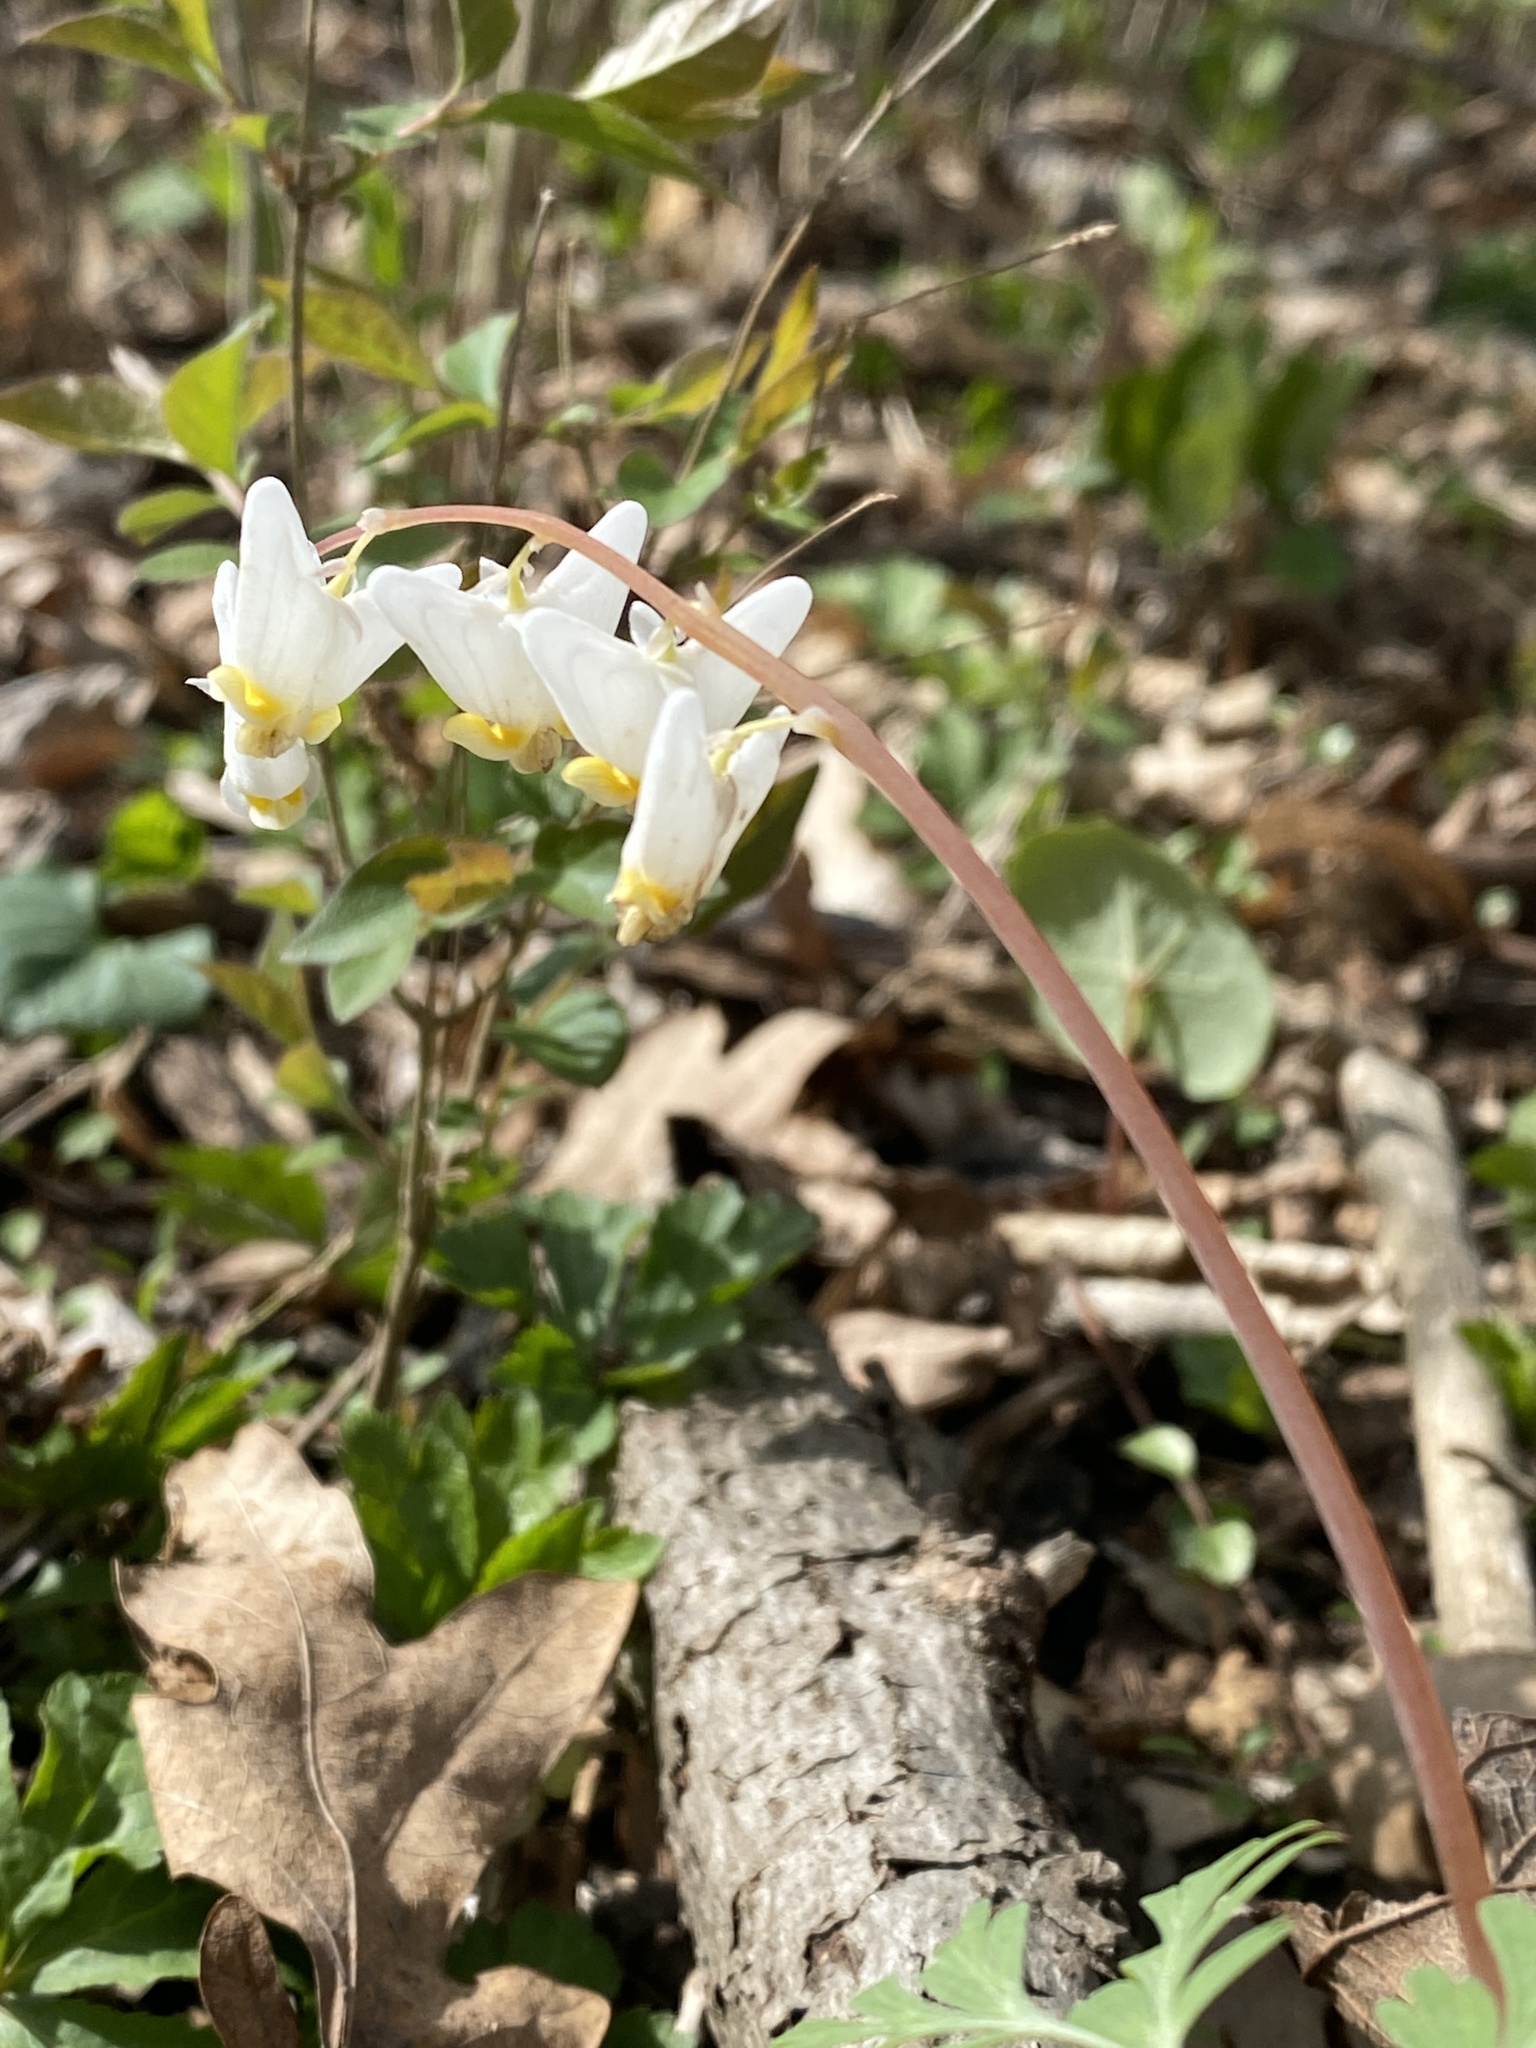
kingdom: Plantae
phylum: Tracheophyta
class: Magnoliopsida
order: Ranunculales
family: Papaveraceae
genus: Dicentra
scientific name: Dicentra cucullaria
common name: Dutchman's breeches
